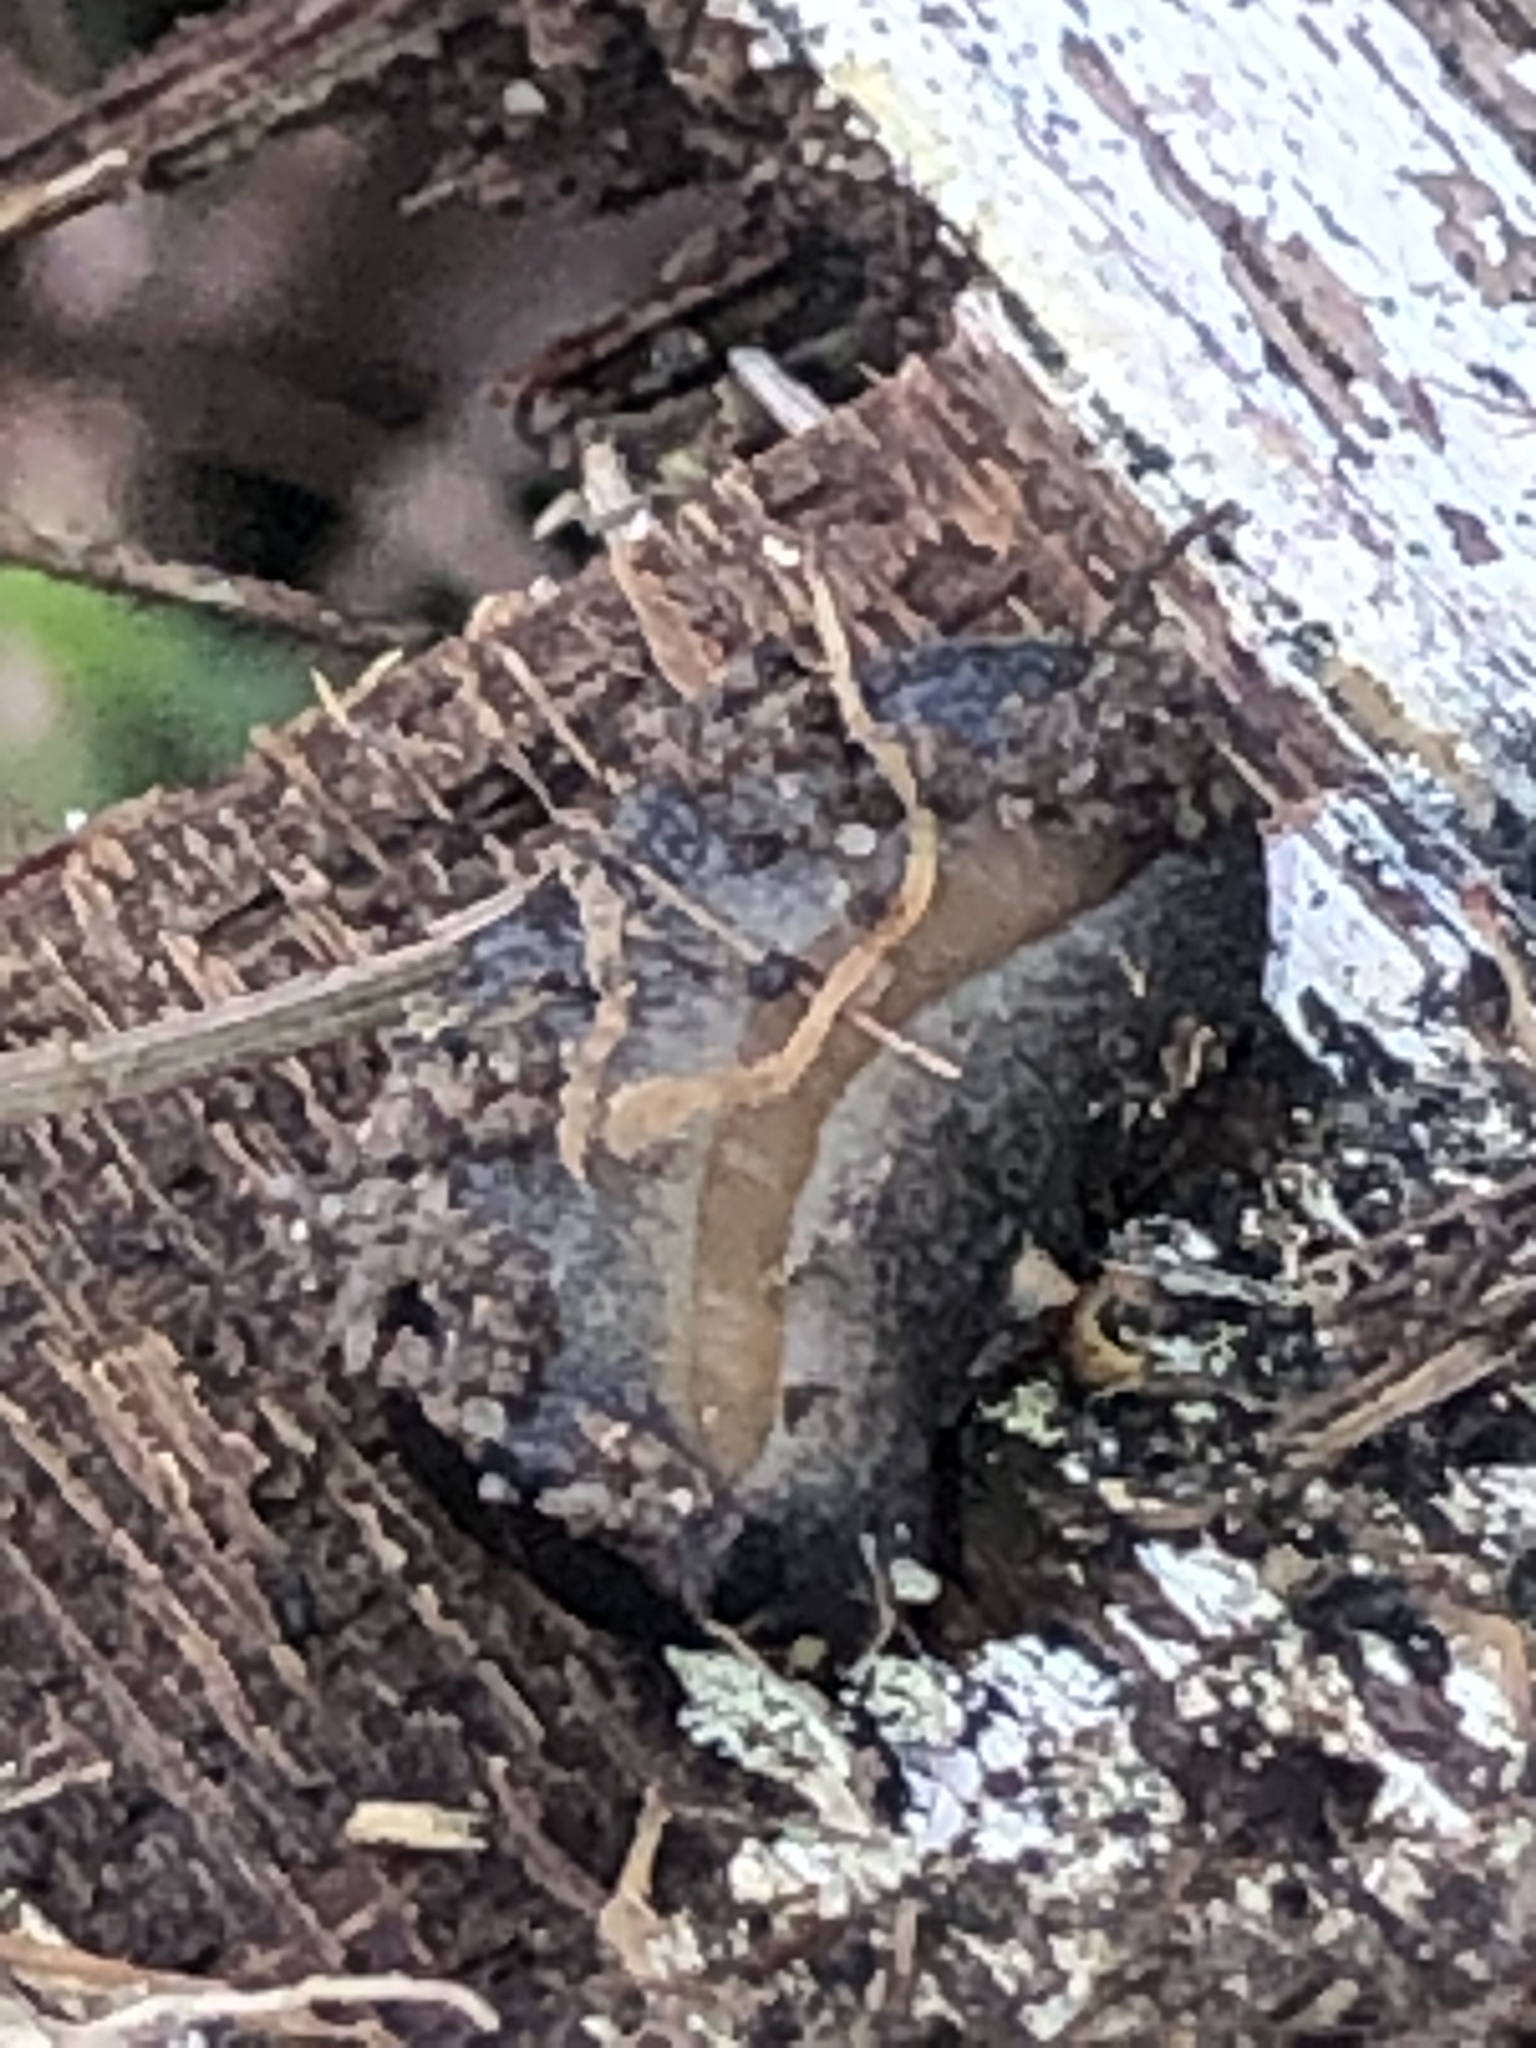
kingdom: Animalia
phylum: Mollusca
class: Gastropoda
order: Systellommatophora
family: Veronicellidae
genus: Belocaulus
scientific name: Belocaulus angustipes
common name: Black velvet leatherleaf slug
